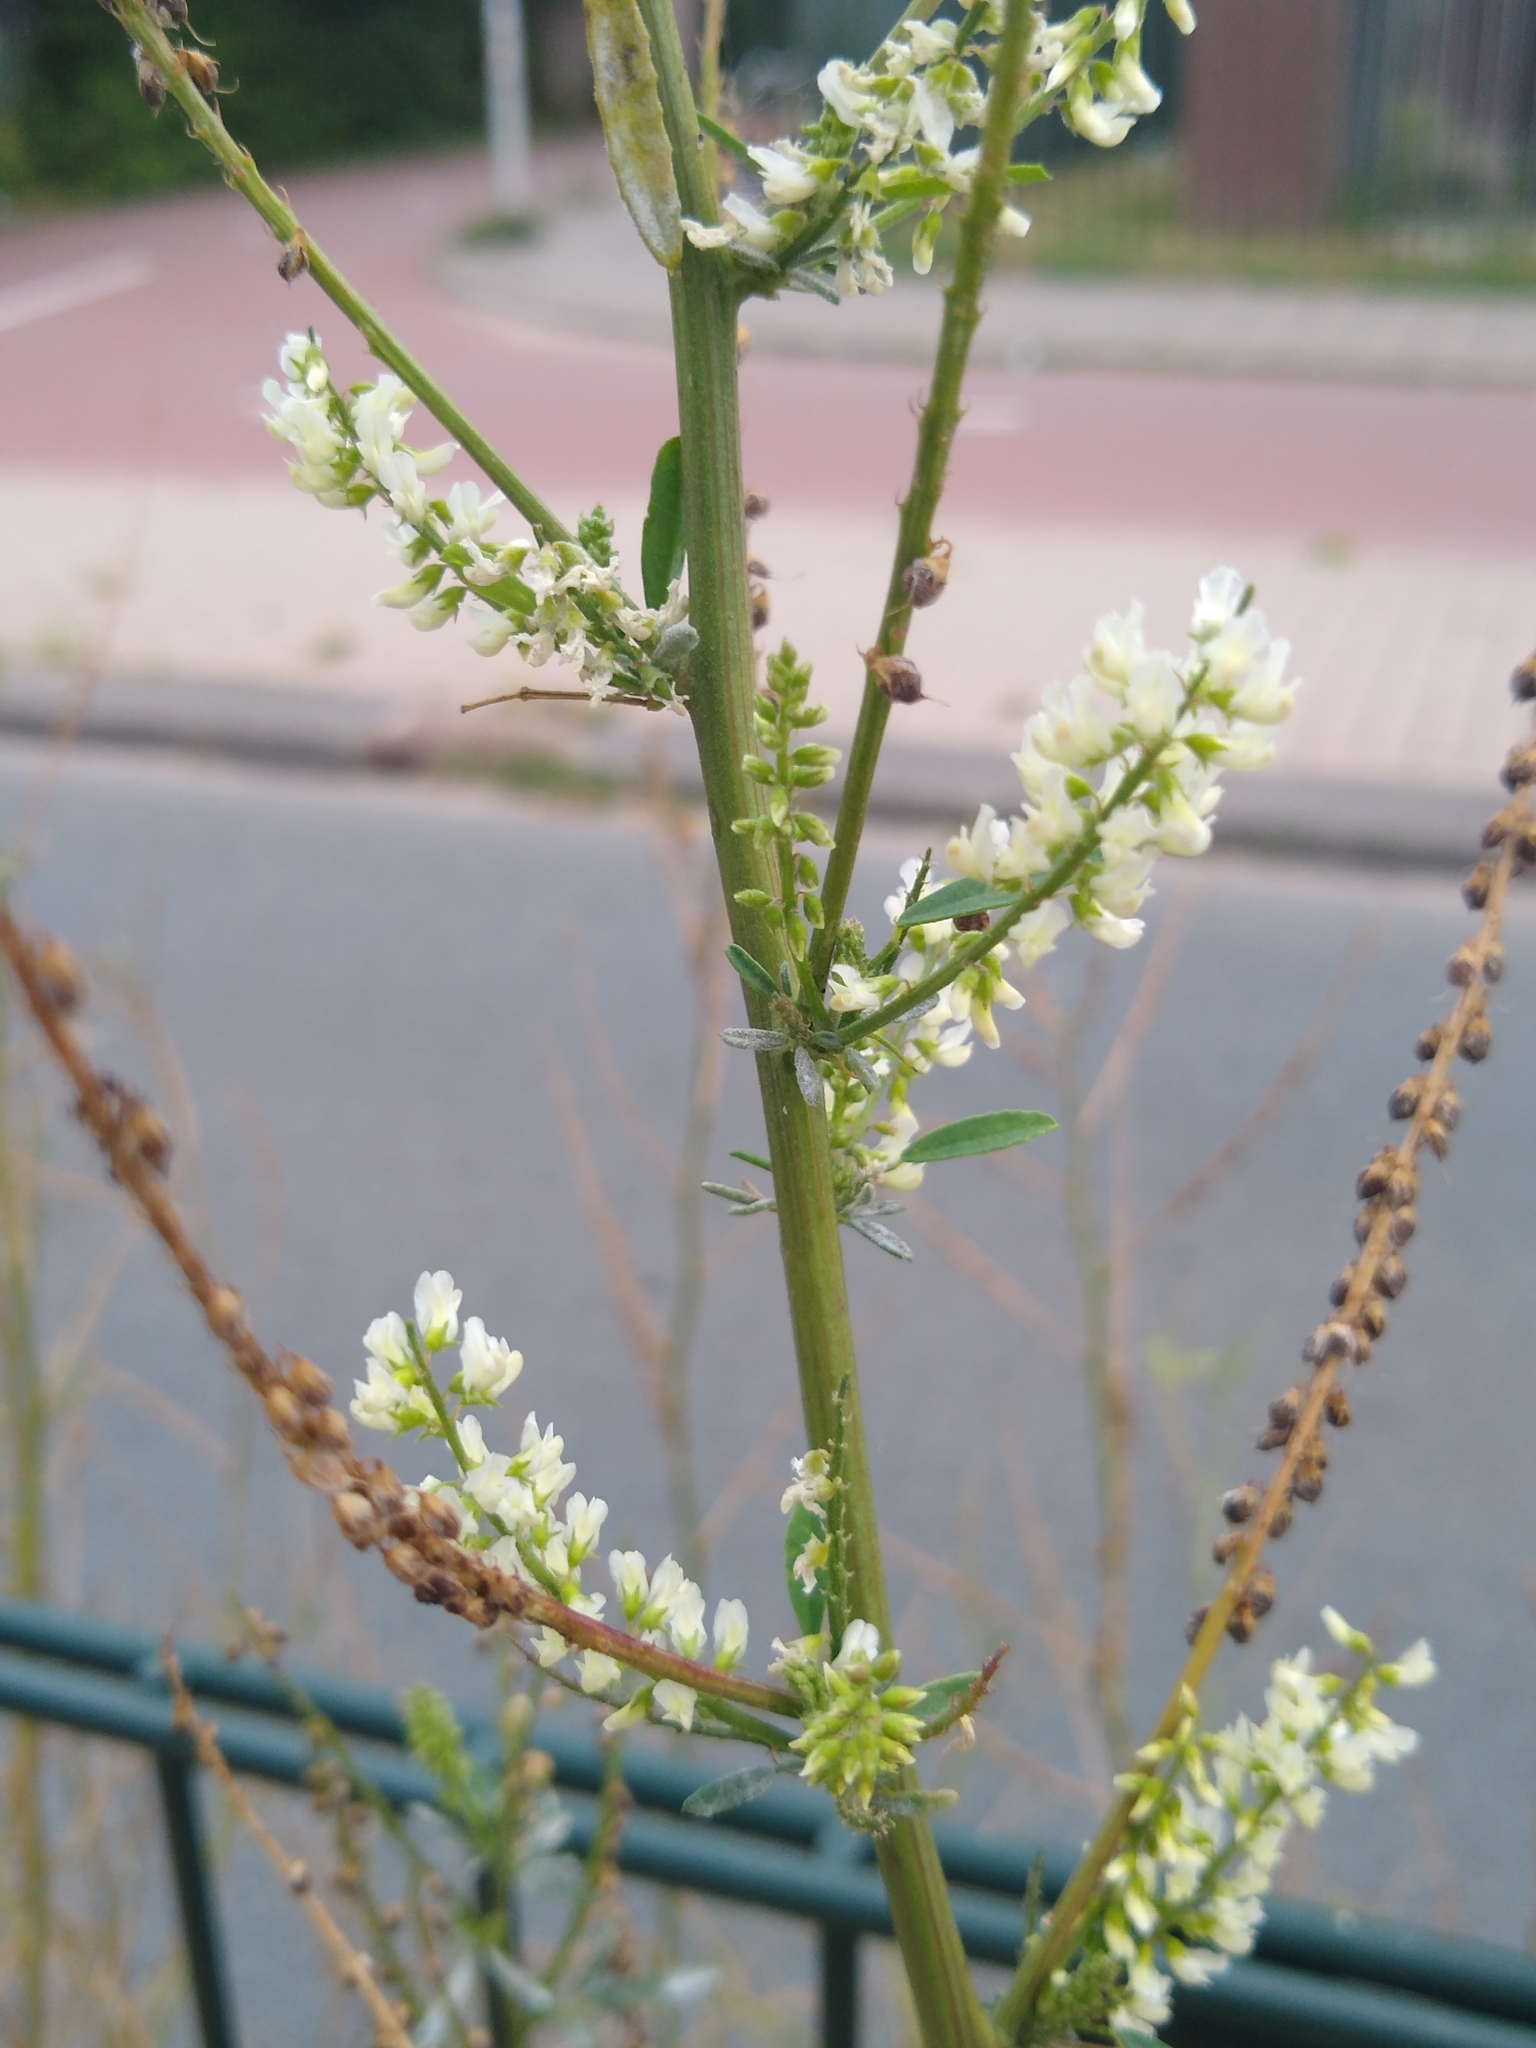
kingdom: Plantae
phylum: Tracheophyta
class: Magnoliopsida
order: Fabales
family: Fabaceae
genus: Melilotus
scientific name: Melilotus albus
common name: White melilot
